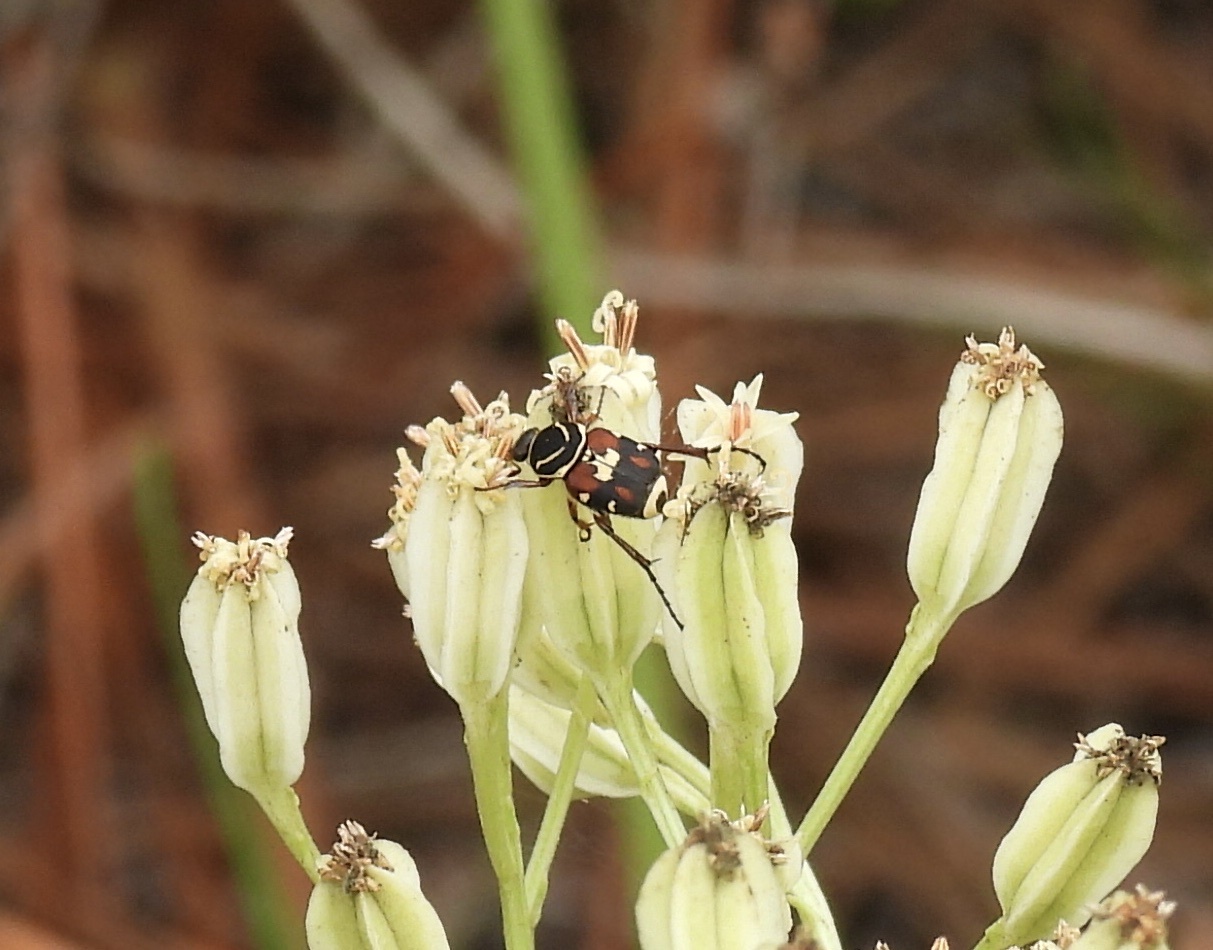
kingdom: Animalia
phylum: Arthropoda
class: Insecta
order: Coleoptera
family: Scarabaeidae
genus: Trigonopeltastes
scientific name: Trigonopeltastes delta
